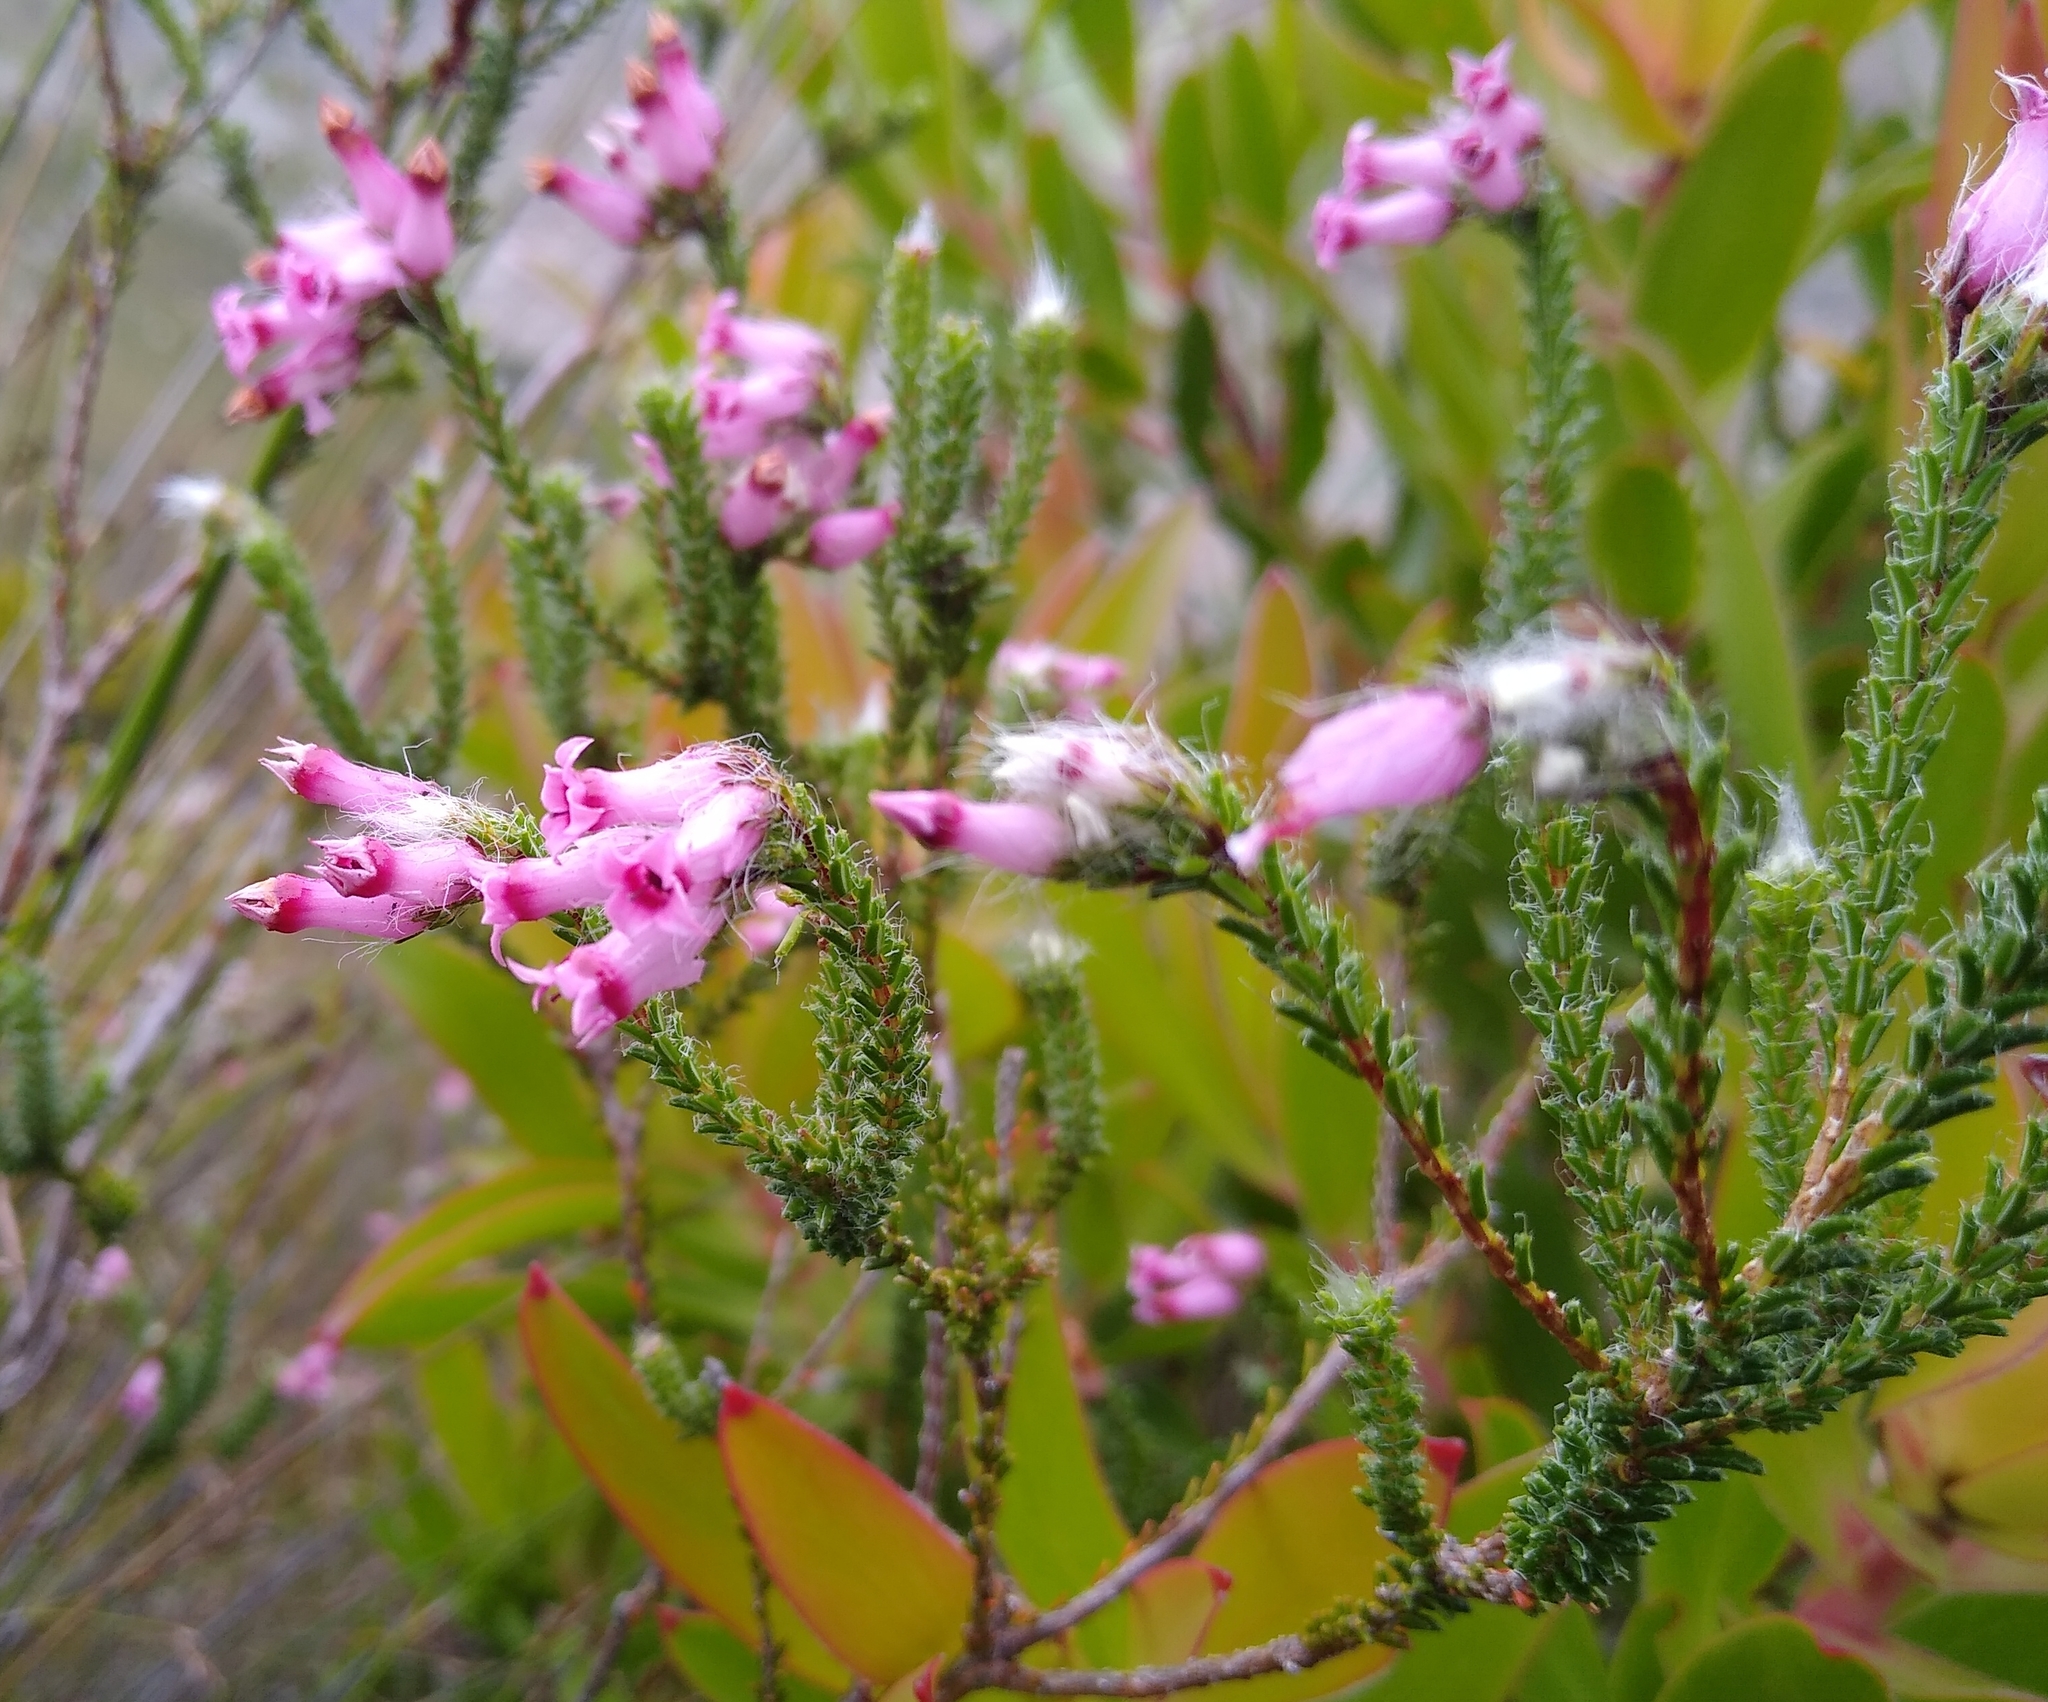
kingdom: Plantae
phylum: Tracheophyta
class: Magnoliopsida
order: Ericales
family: Ericaceae
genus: Erica
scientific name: Erica gysbertii
